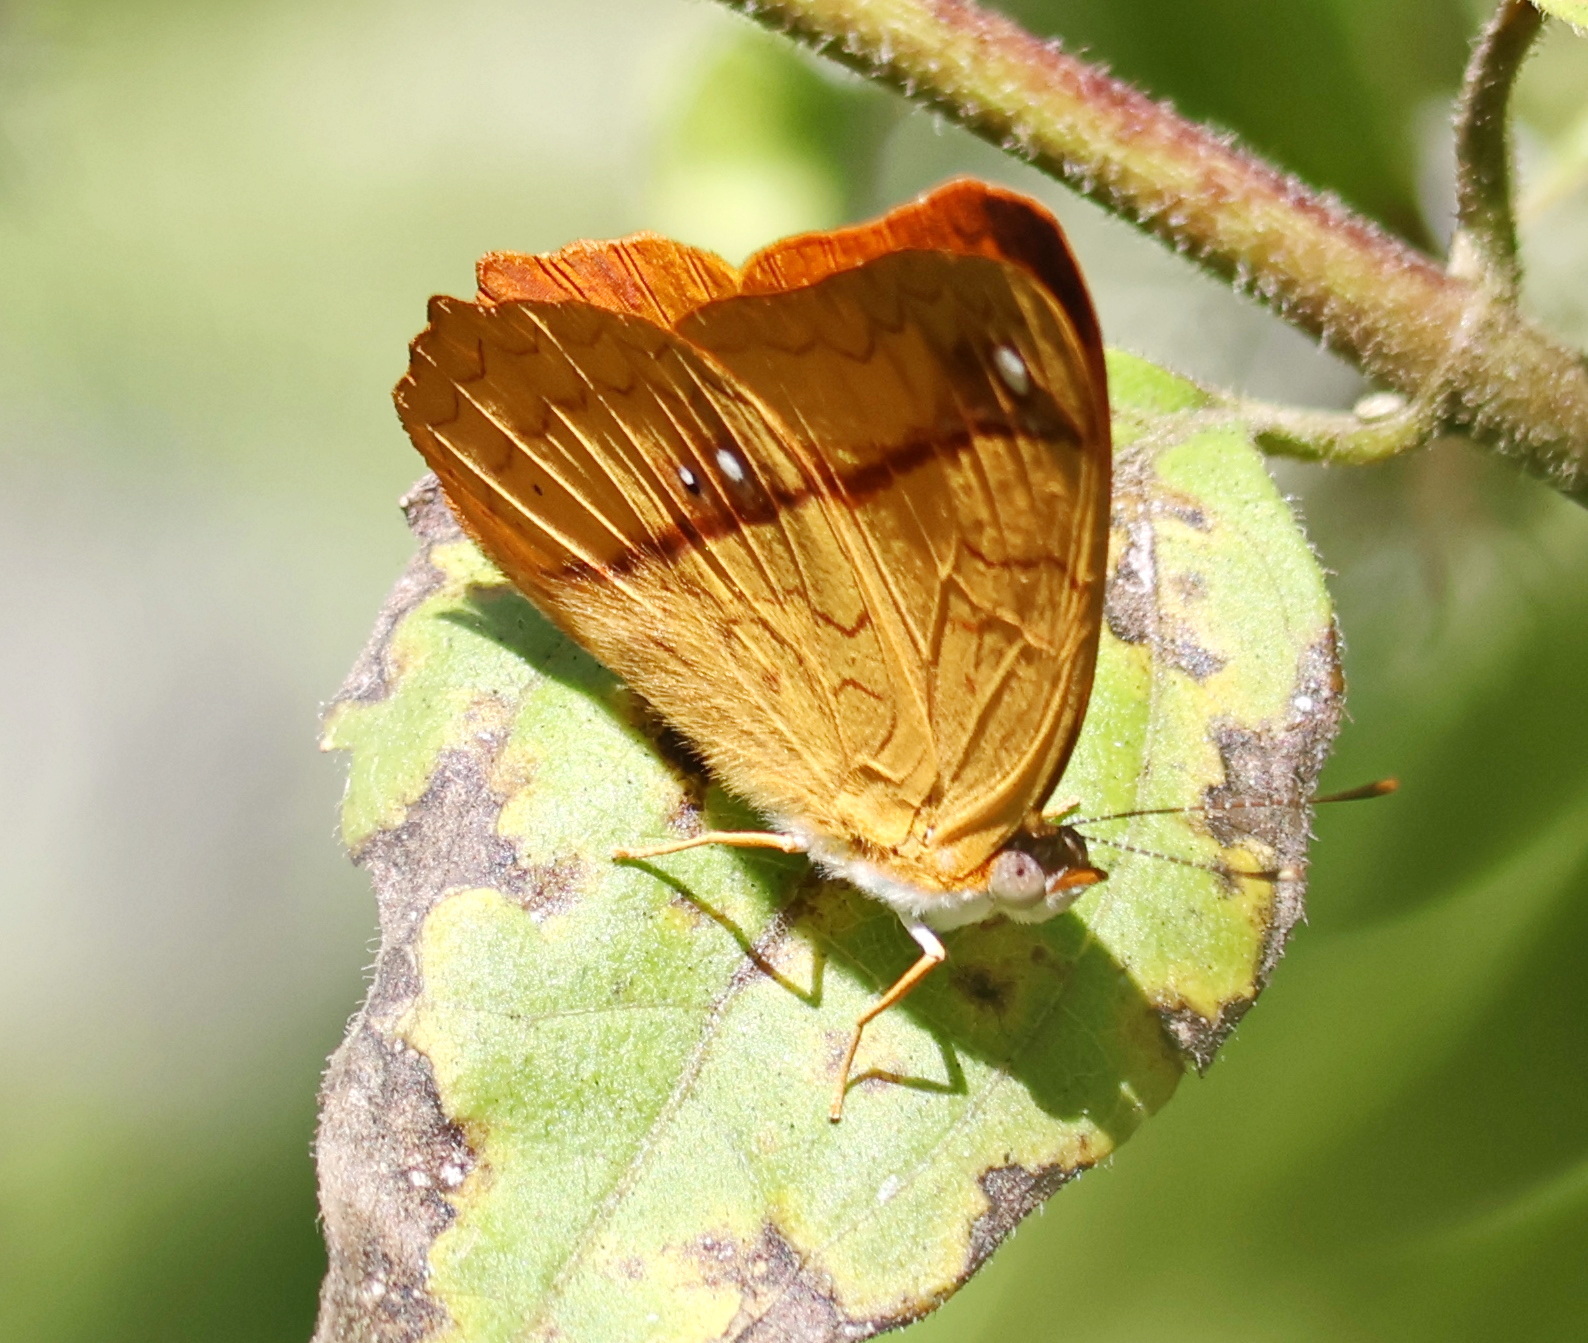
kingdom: Animalia
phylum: Arthropoda
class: Insecta
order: Lepidoptera
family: Nymphalidae
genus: Nica
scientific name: Nica flavilla
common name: Mandarin nica
